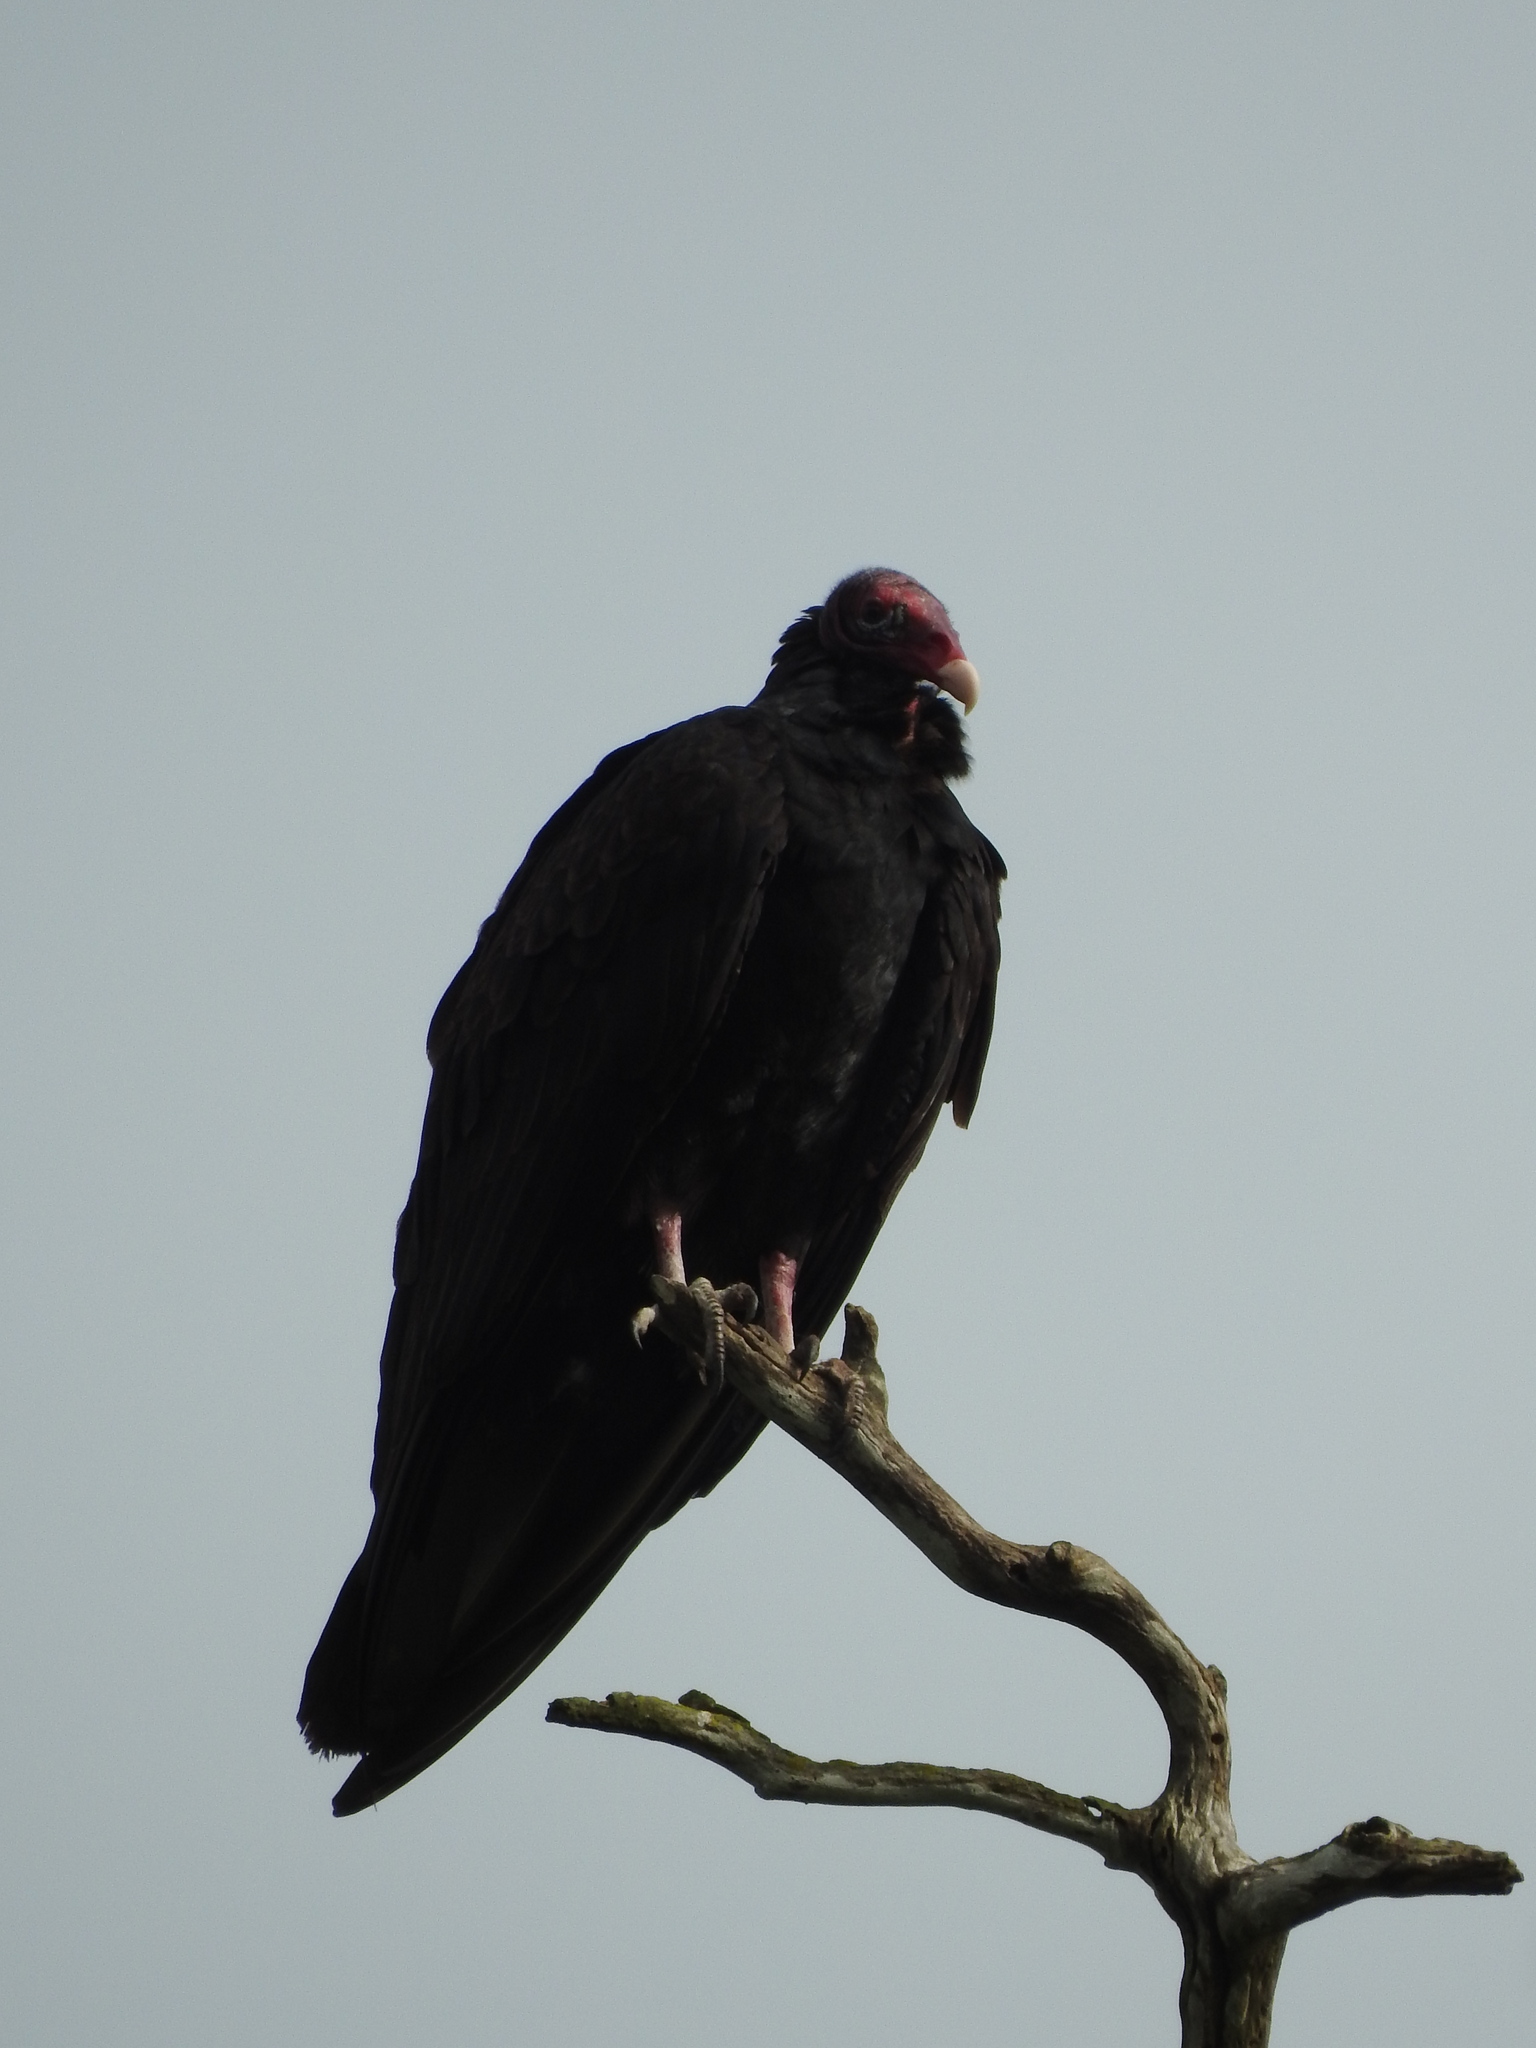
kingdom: Animalia
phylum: Chordata
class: Aves
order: Accipitriformes
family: Cathartidae
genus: Cathartes
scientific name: Cathartes aura
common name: Turkey vulture
